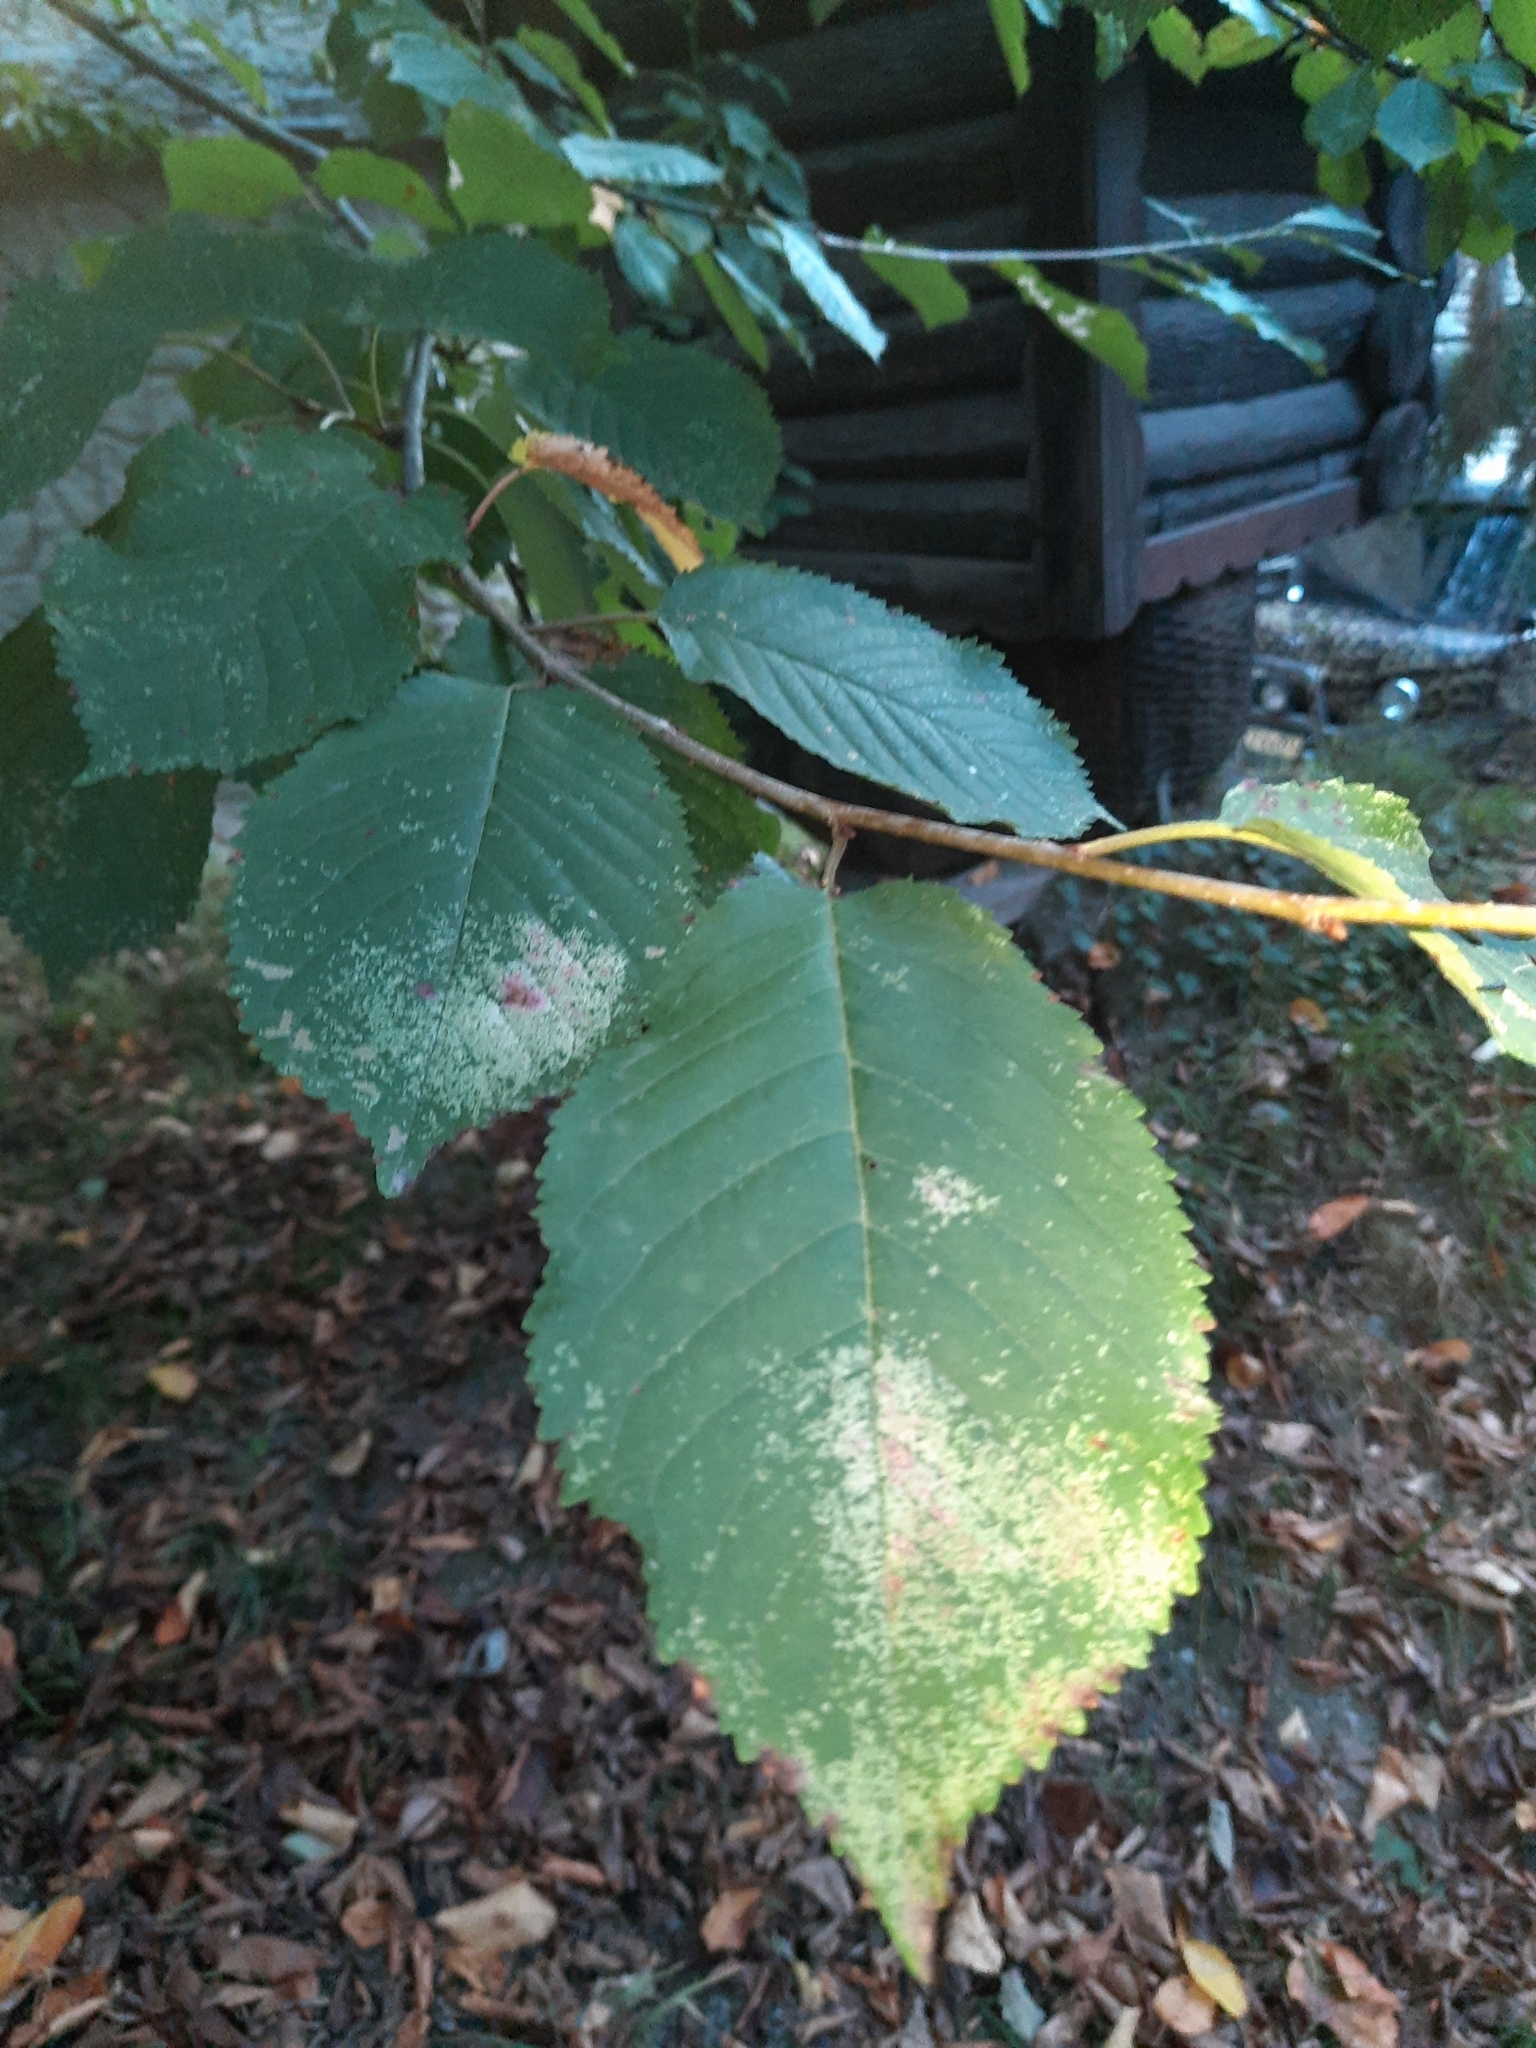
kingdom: Plantae
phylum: Tracheophyta
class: Magnoliopsida
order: Rosales
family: Rosaceae
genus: Prunus
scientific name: Prunus avium
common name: Sweet cherry
